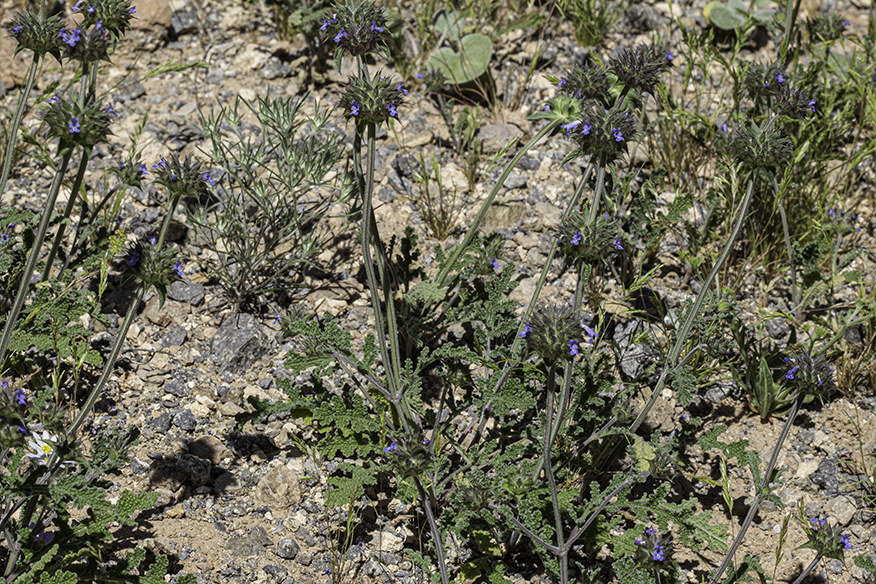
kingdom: Plantae
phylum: Tracheophyta
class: Magnoliopsida
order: Lamiales
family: Lamiaceae
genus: Salvia
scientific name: Salvia columbariae
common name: Chia
